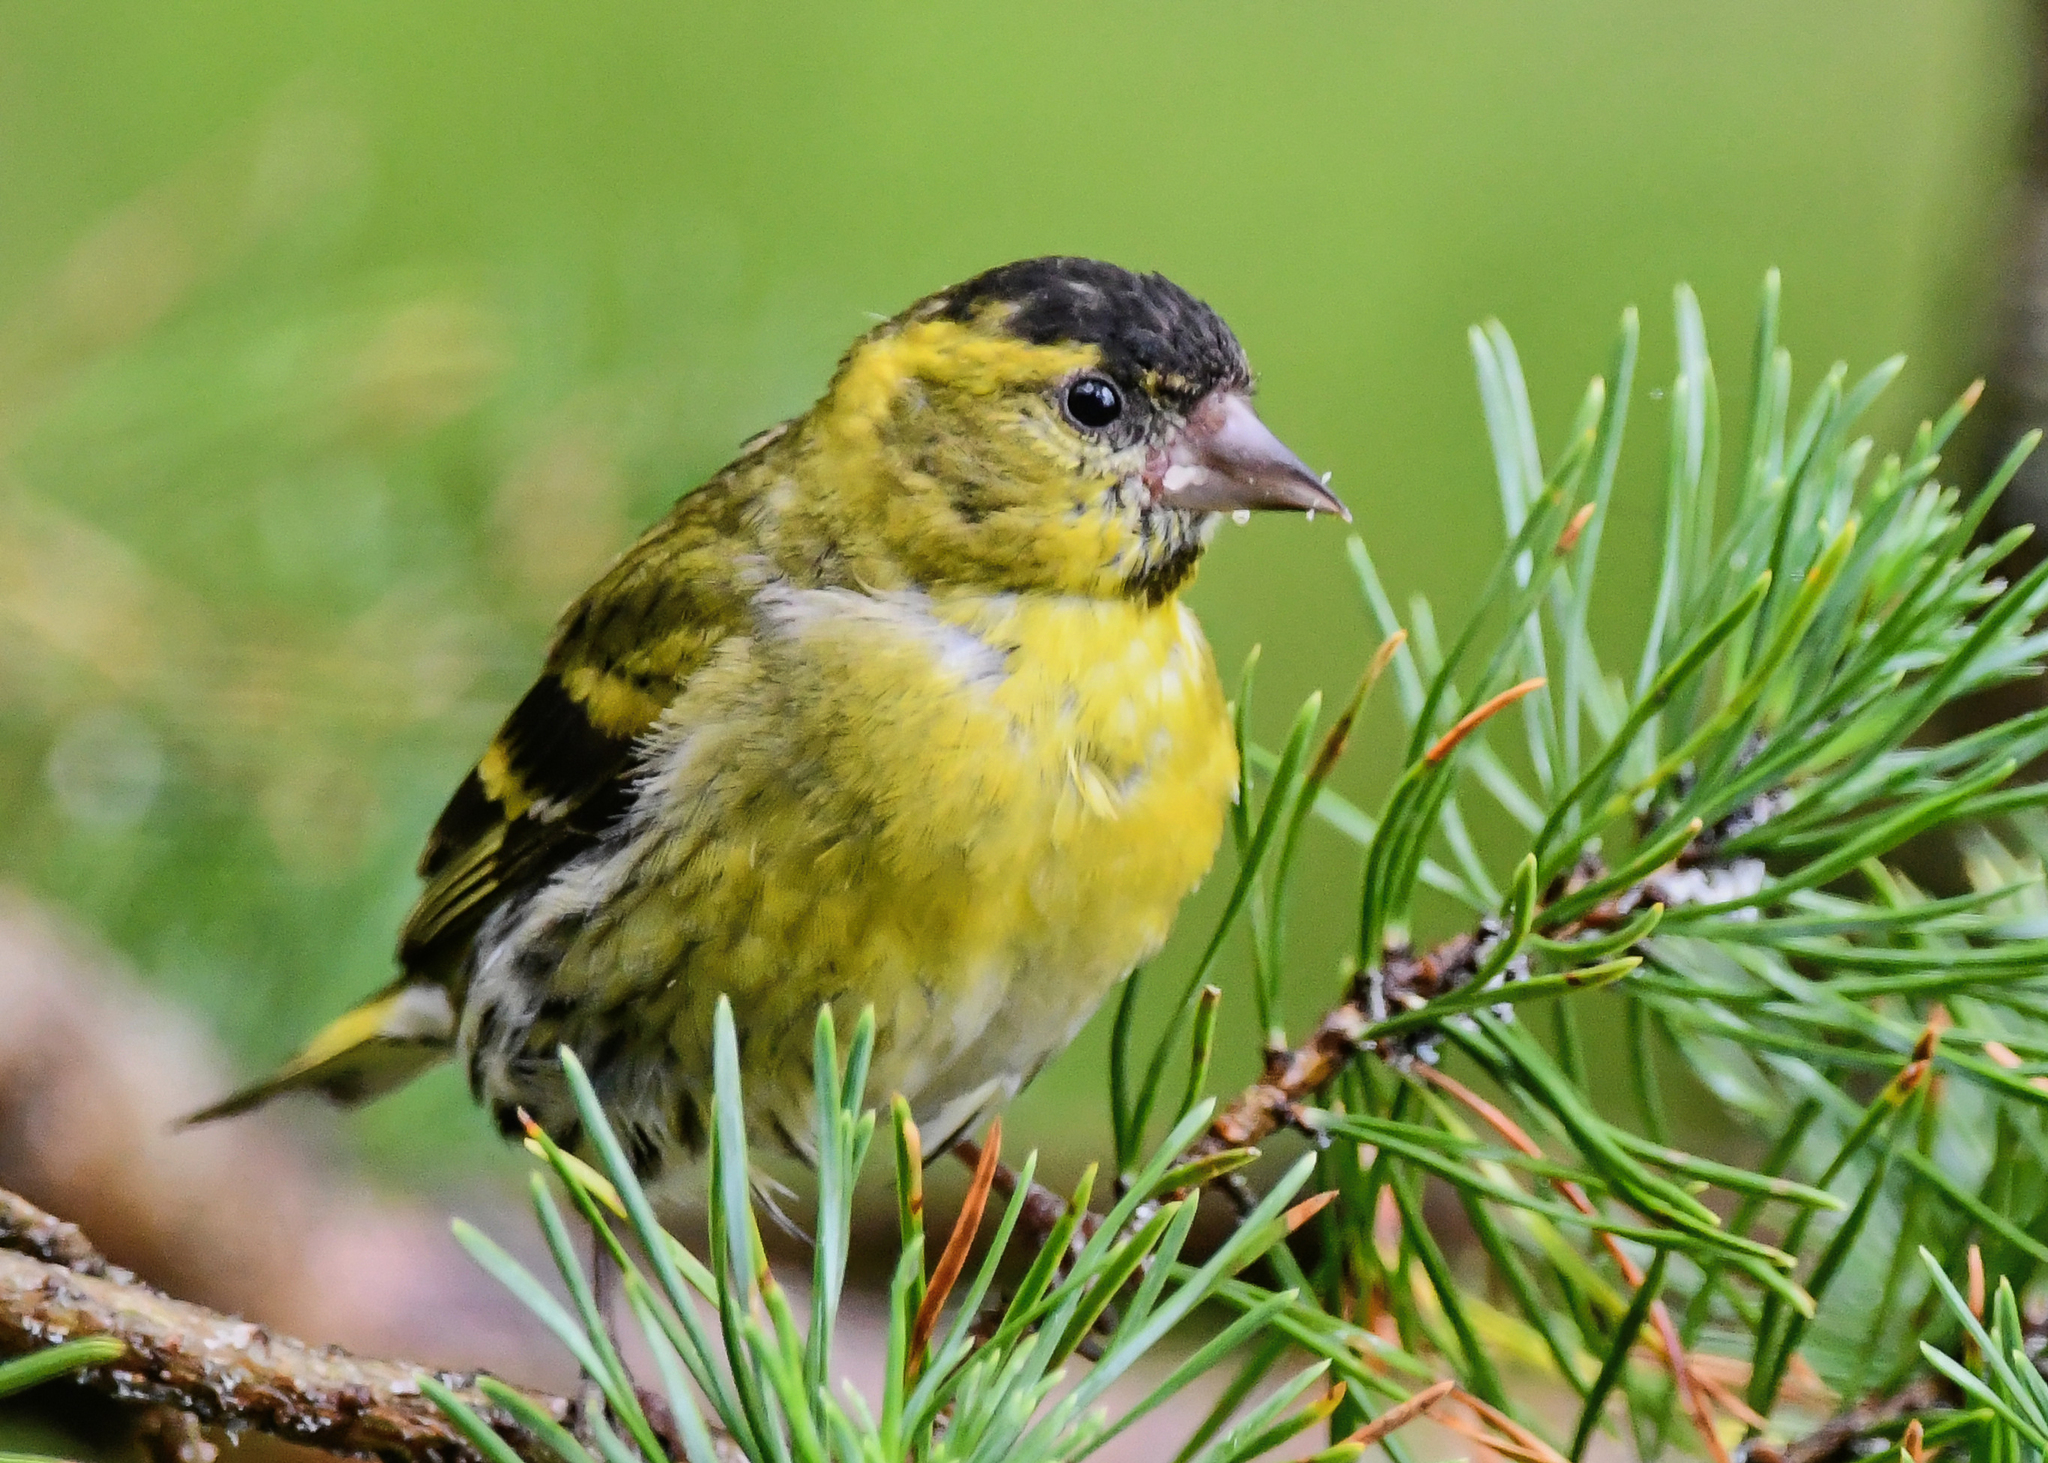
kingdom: Animalia
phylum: Chordata
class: Aves
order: Passeriformes
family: Fringillidae
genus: Spinus
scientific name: Spinus spinus
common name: Eurasian siskin
